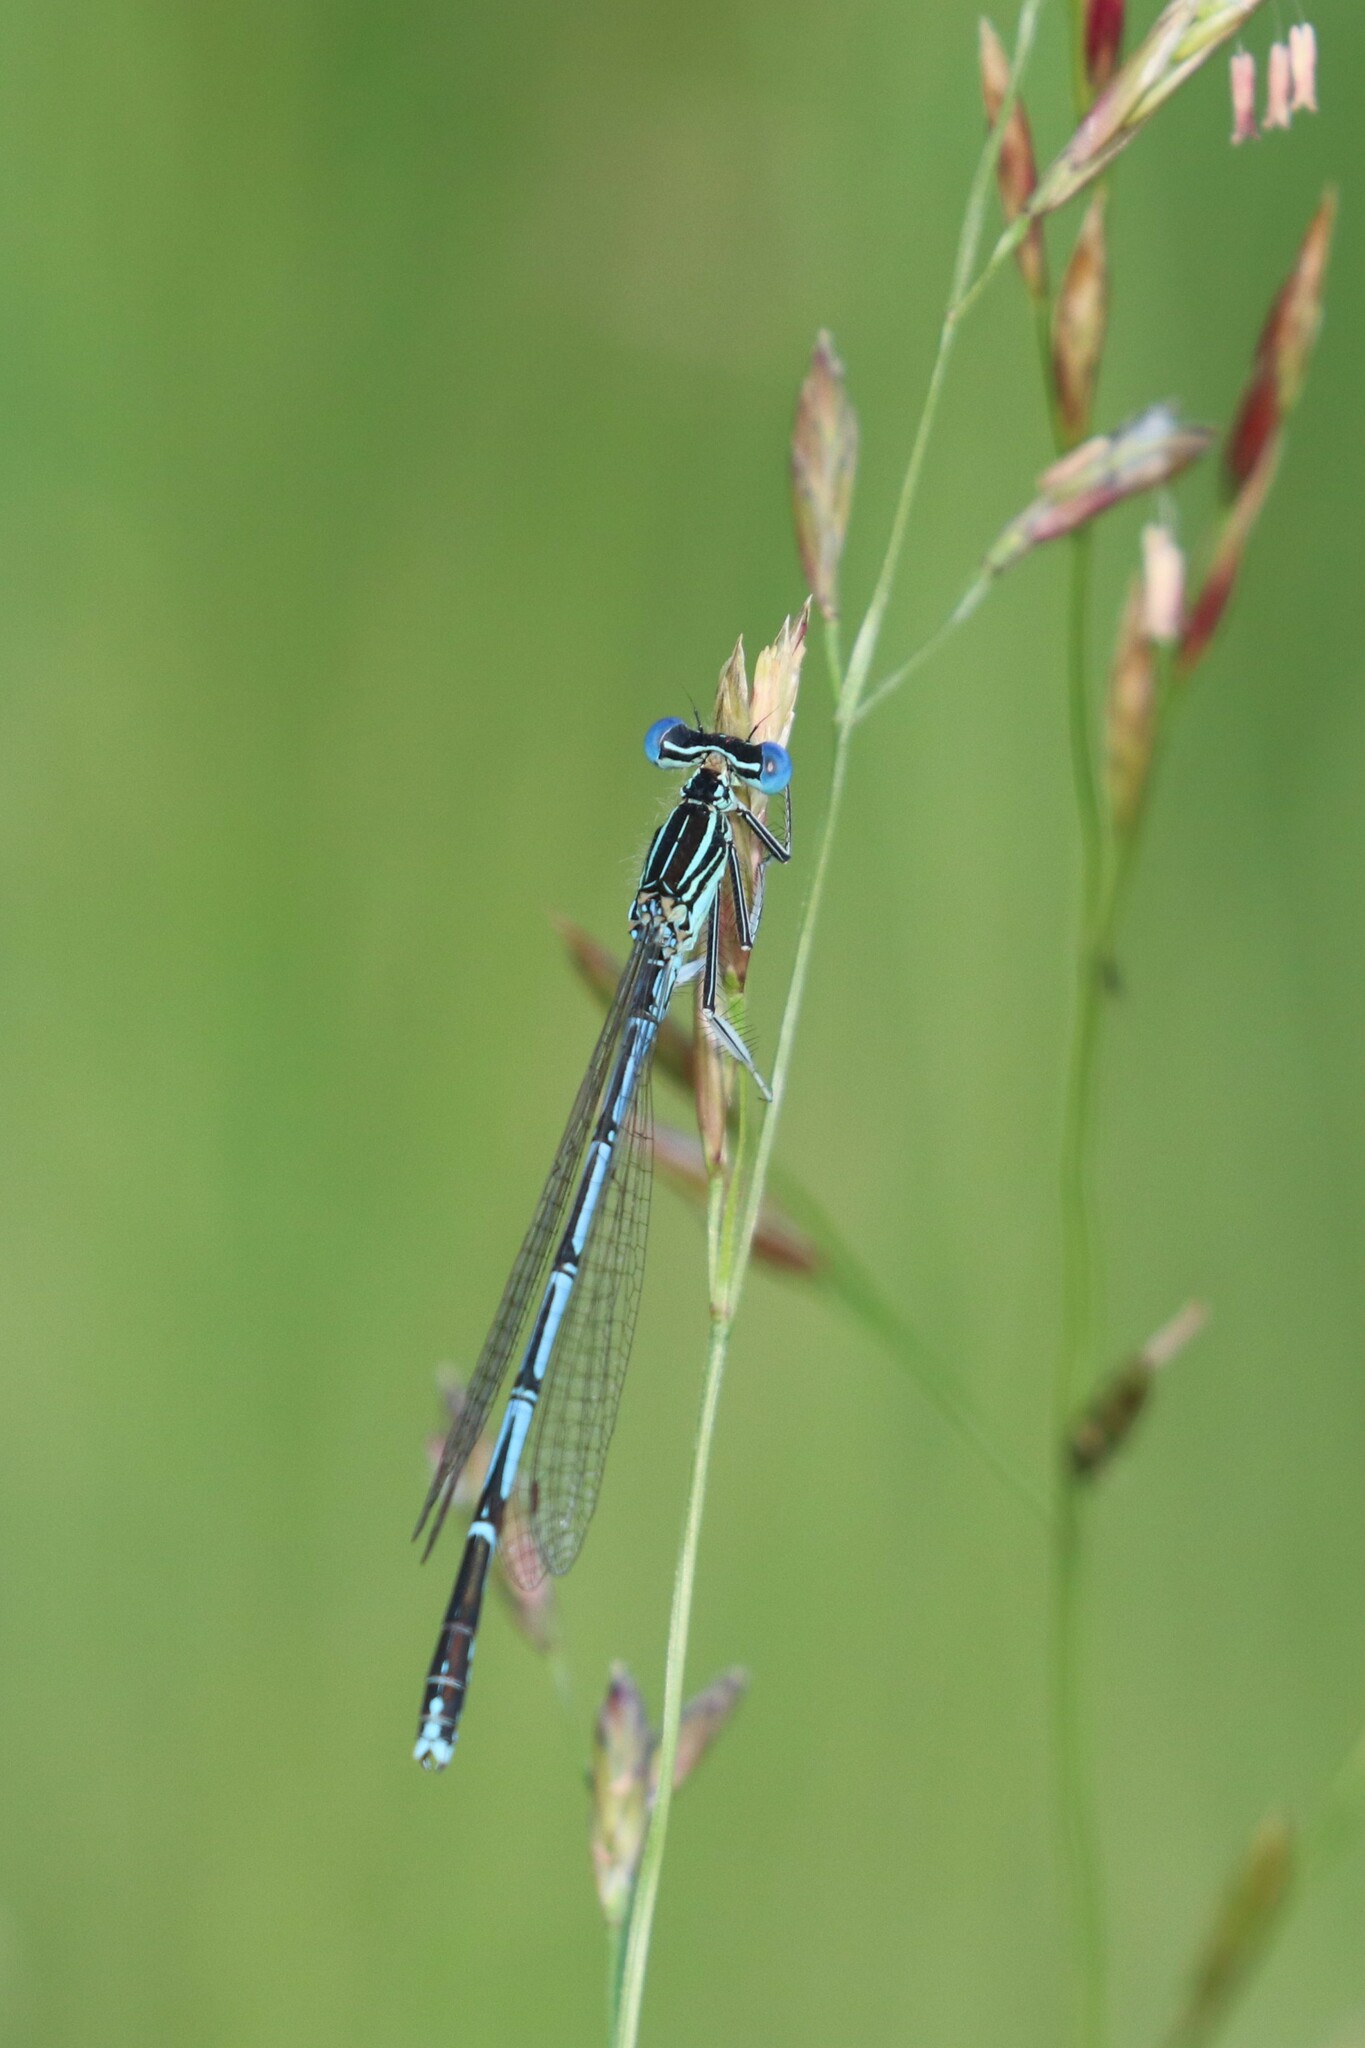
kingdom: Animalia
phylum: Arthropoda
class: Insecta
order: Odonata
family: Platycnemididae
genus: Platycnemis
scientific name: Platycnemis pennipes
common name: White-legged damselfly
